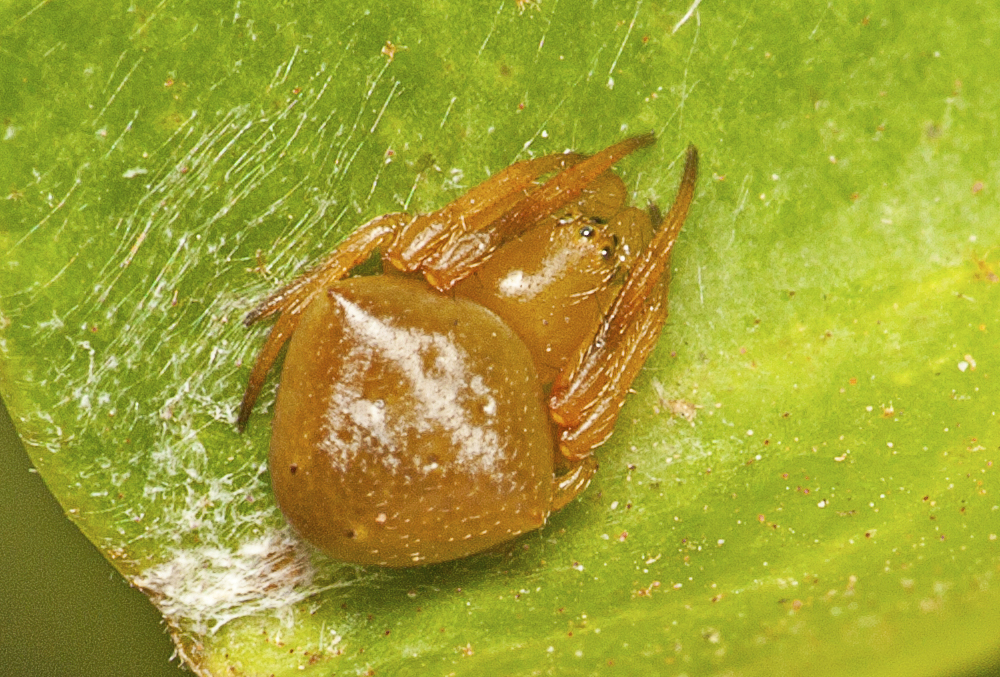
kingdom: Animalia
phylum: Arthropoda
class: Arachnida
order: Araneae
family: Araneidae
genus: Araneus
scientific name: Araneus cyrtarachnoides
